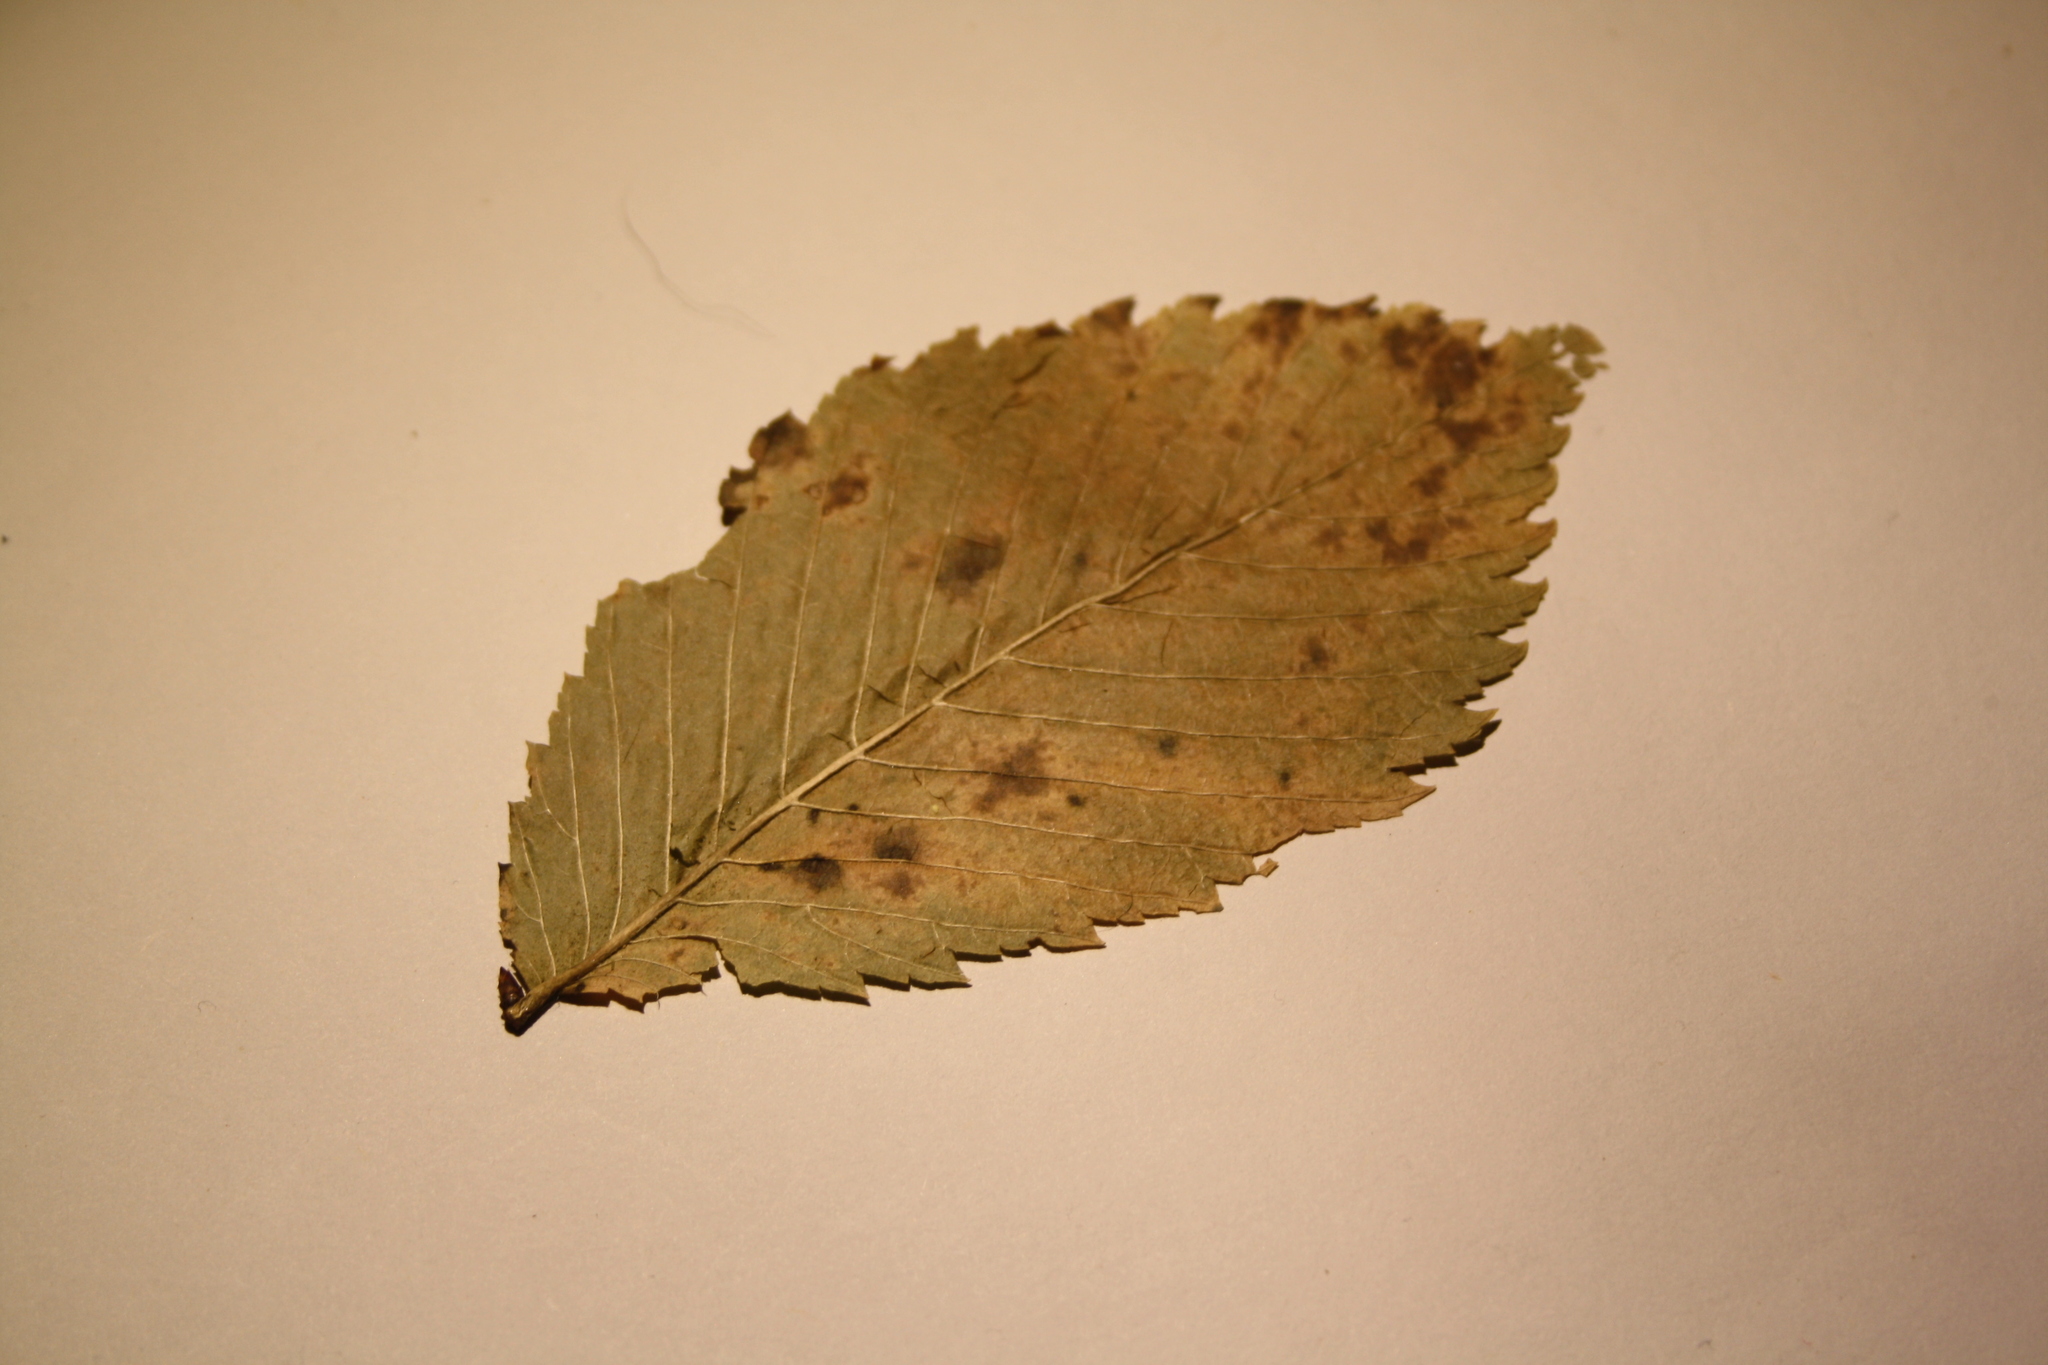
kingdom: Plantae
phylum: Tracheophyta
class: Magnoliopsida
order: Rosales
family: Ulmaceae
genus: Ulmus
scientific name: Ulmus americana
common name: American elm
